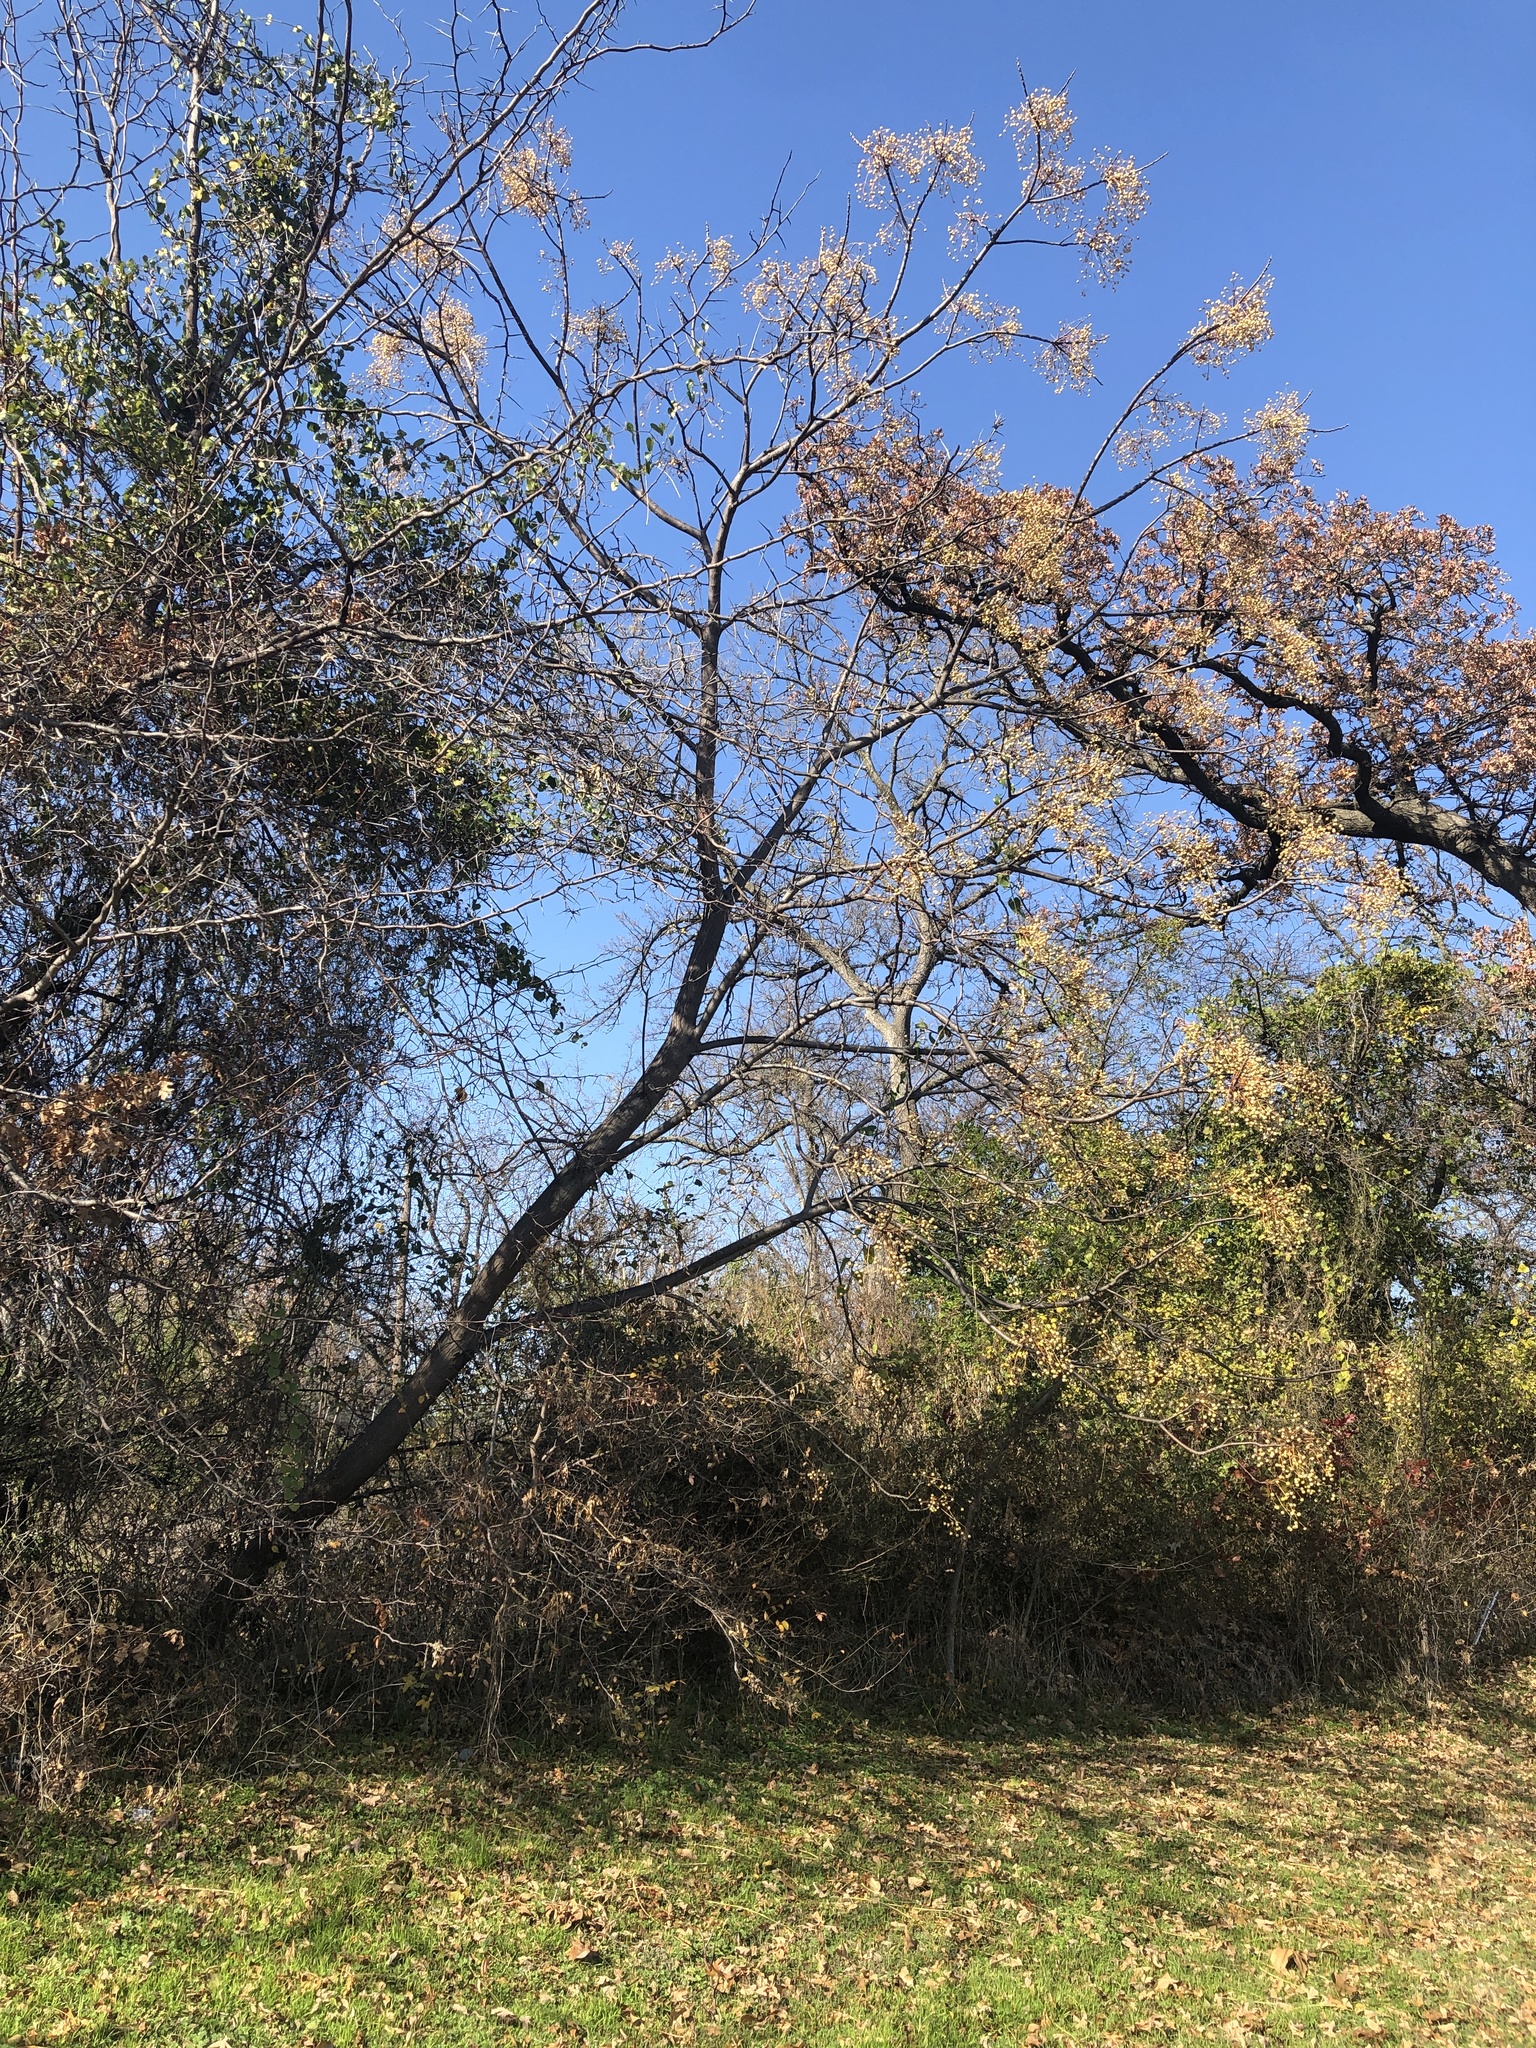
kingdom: Plantae
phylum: Tracheophyta
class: Magnoliopsida
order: Sapindales
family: Meliaceae
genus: Melia
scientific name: Melia azedarach
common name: Chinaberrytree
